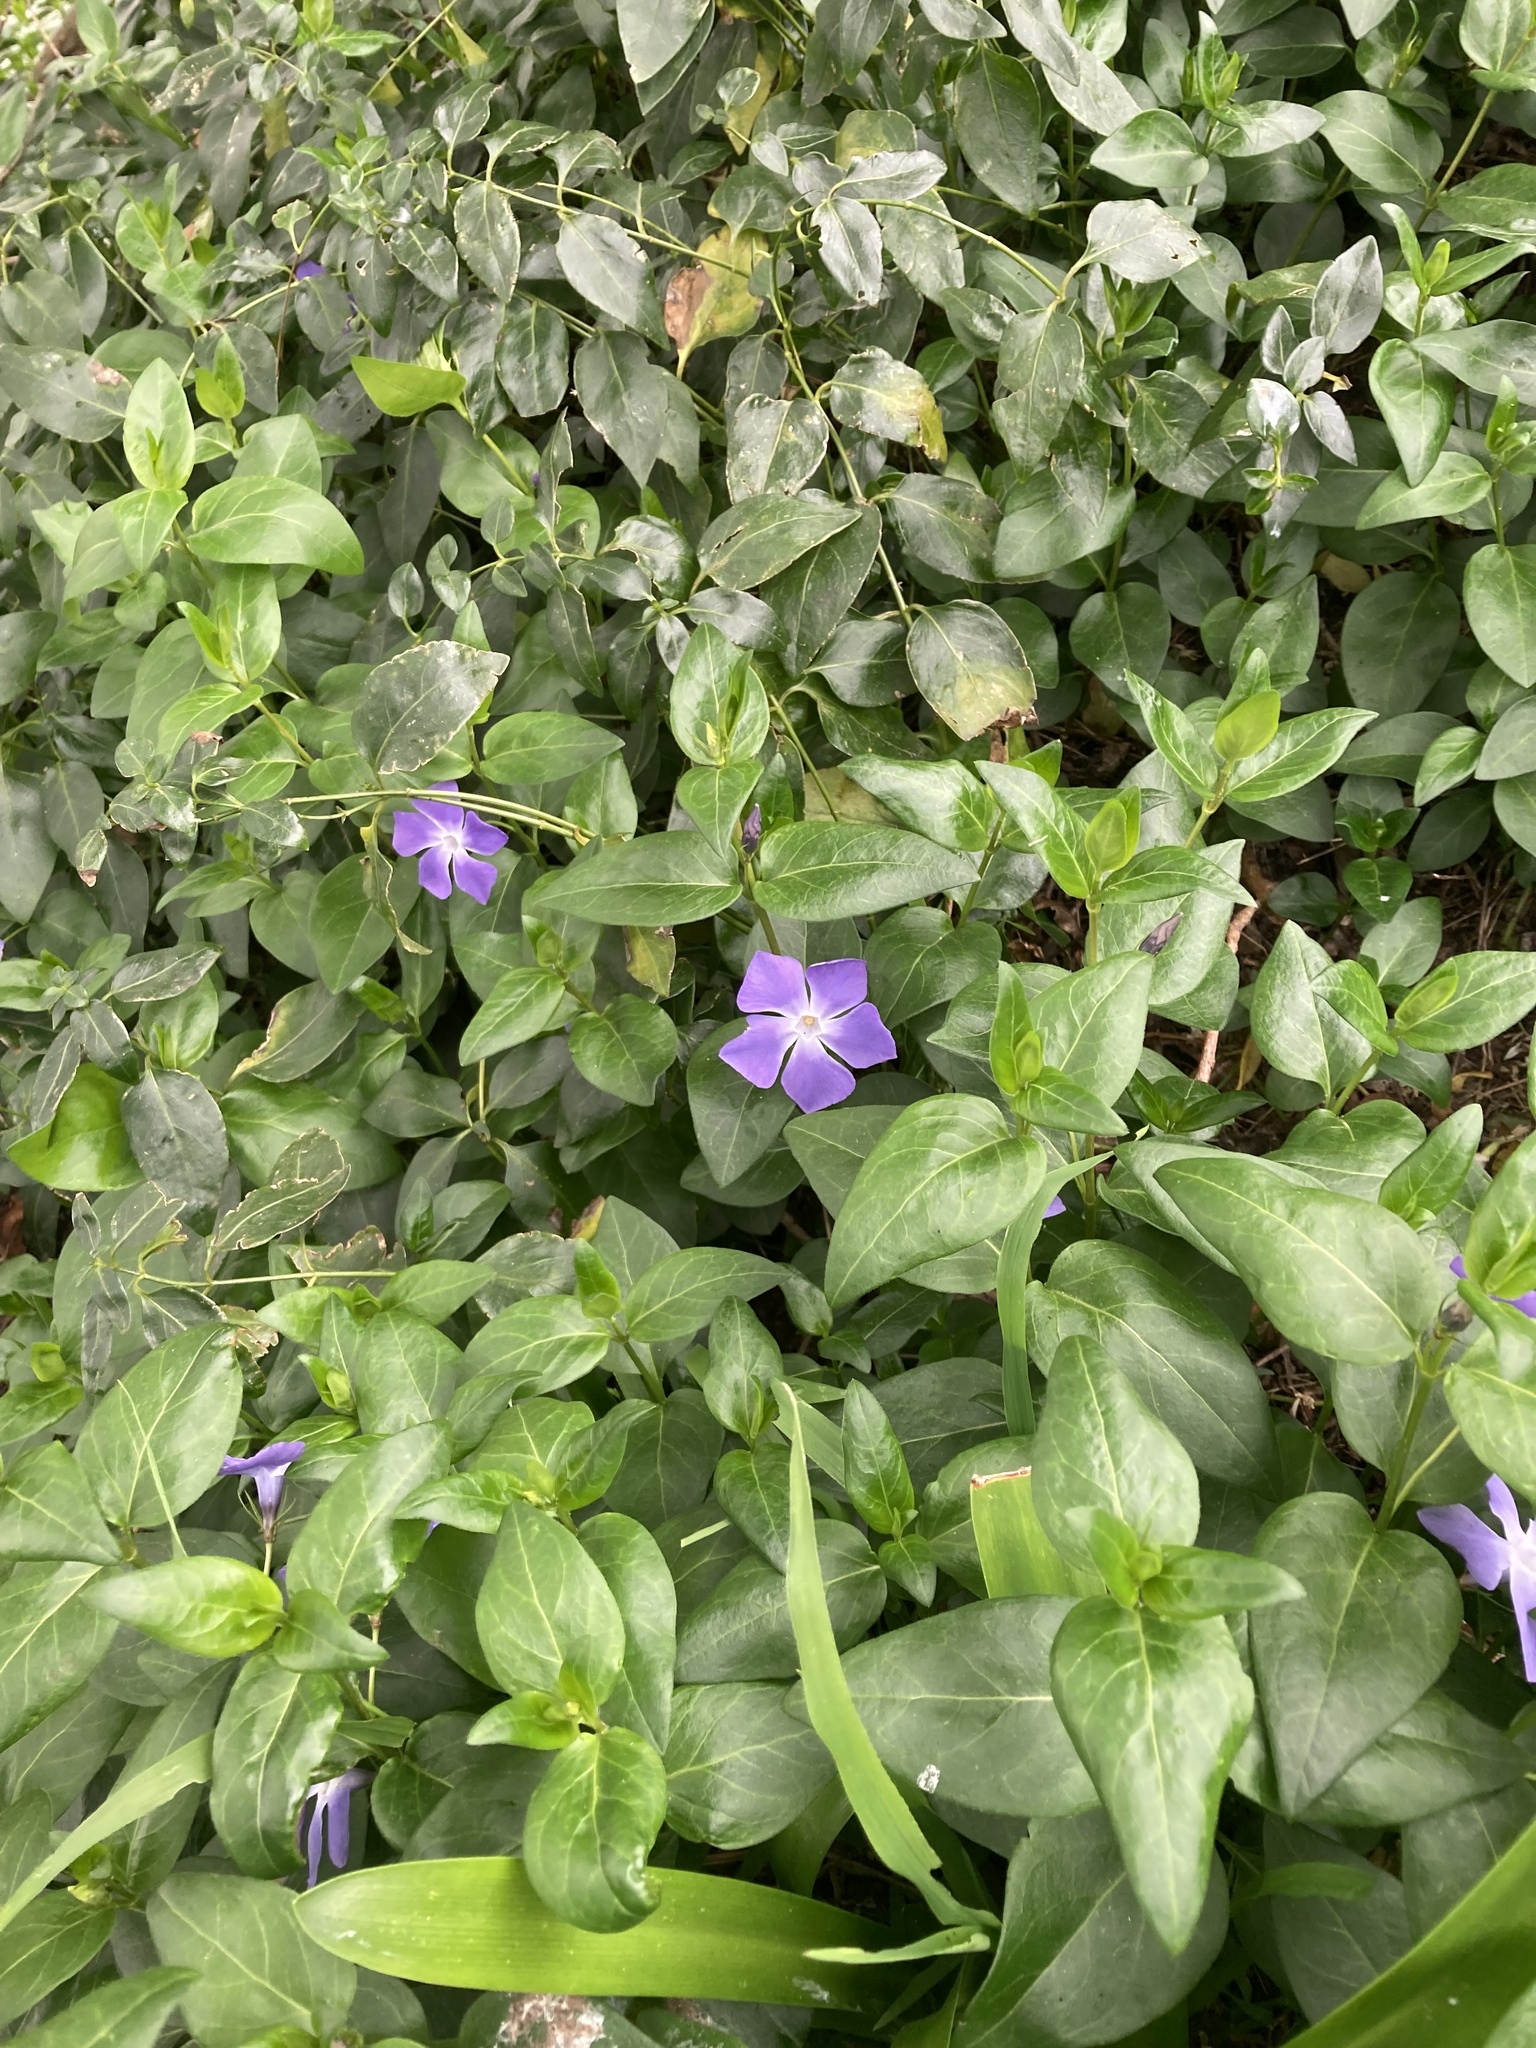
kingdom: Plantae
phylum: Tracheophyta
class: Magnoliopsida
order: Gentianales
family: Apocynaceae
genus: Vinca
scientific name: Vinca major
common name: Greater periwinkle
